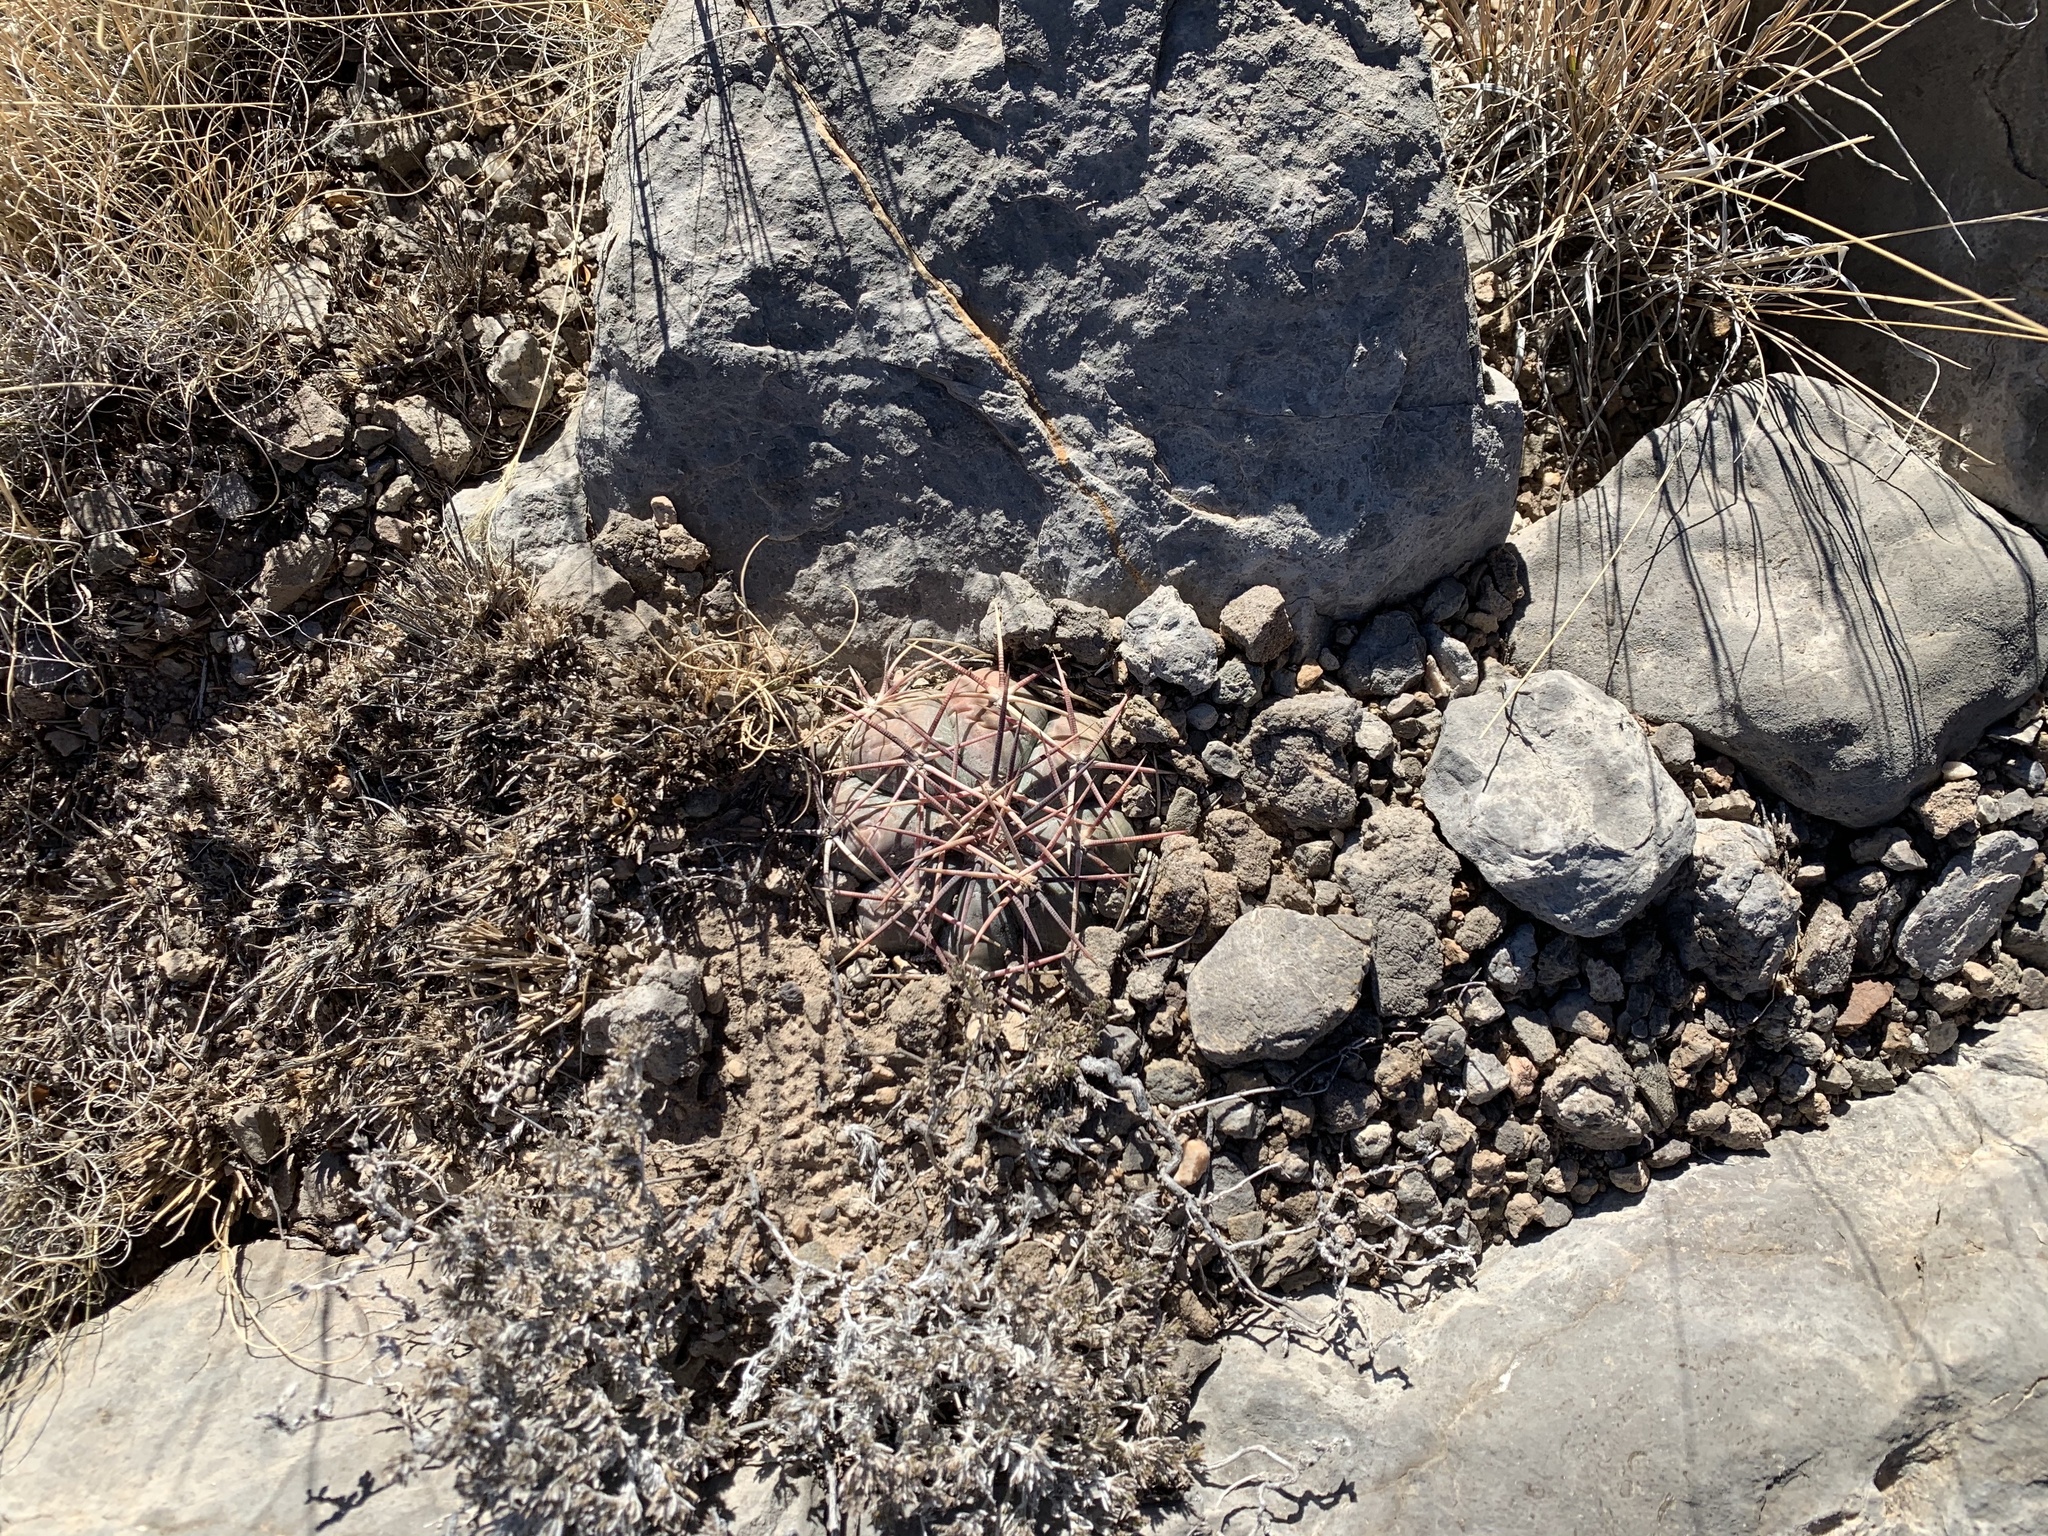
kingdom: Plantae
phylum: Tracheophyta
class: Magnoliopsida
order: Caryophyllales
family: Cactaceae
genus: Echinocactus
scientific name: Echinocactus horizonthalonius
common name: Devilshead
